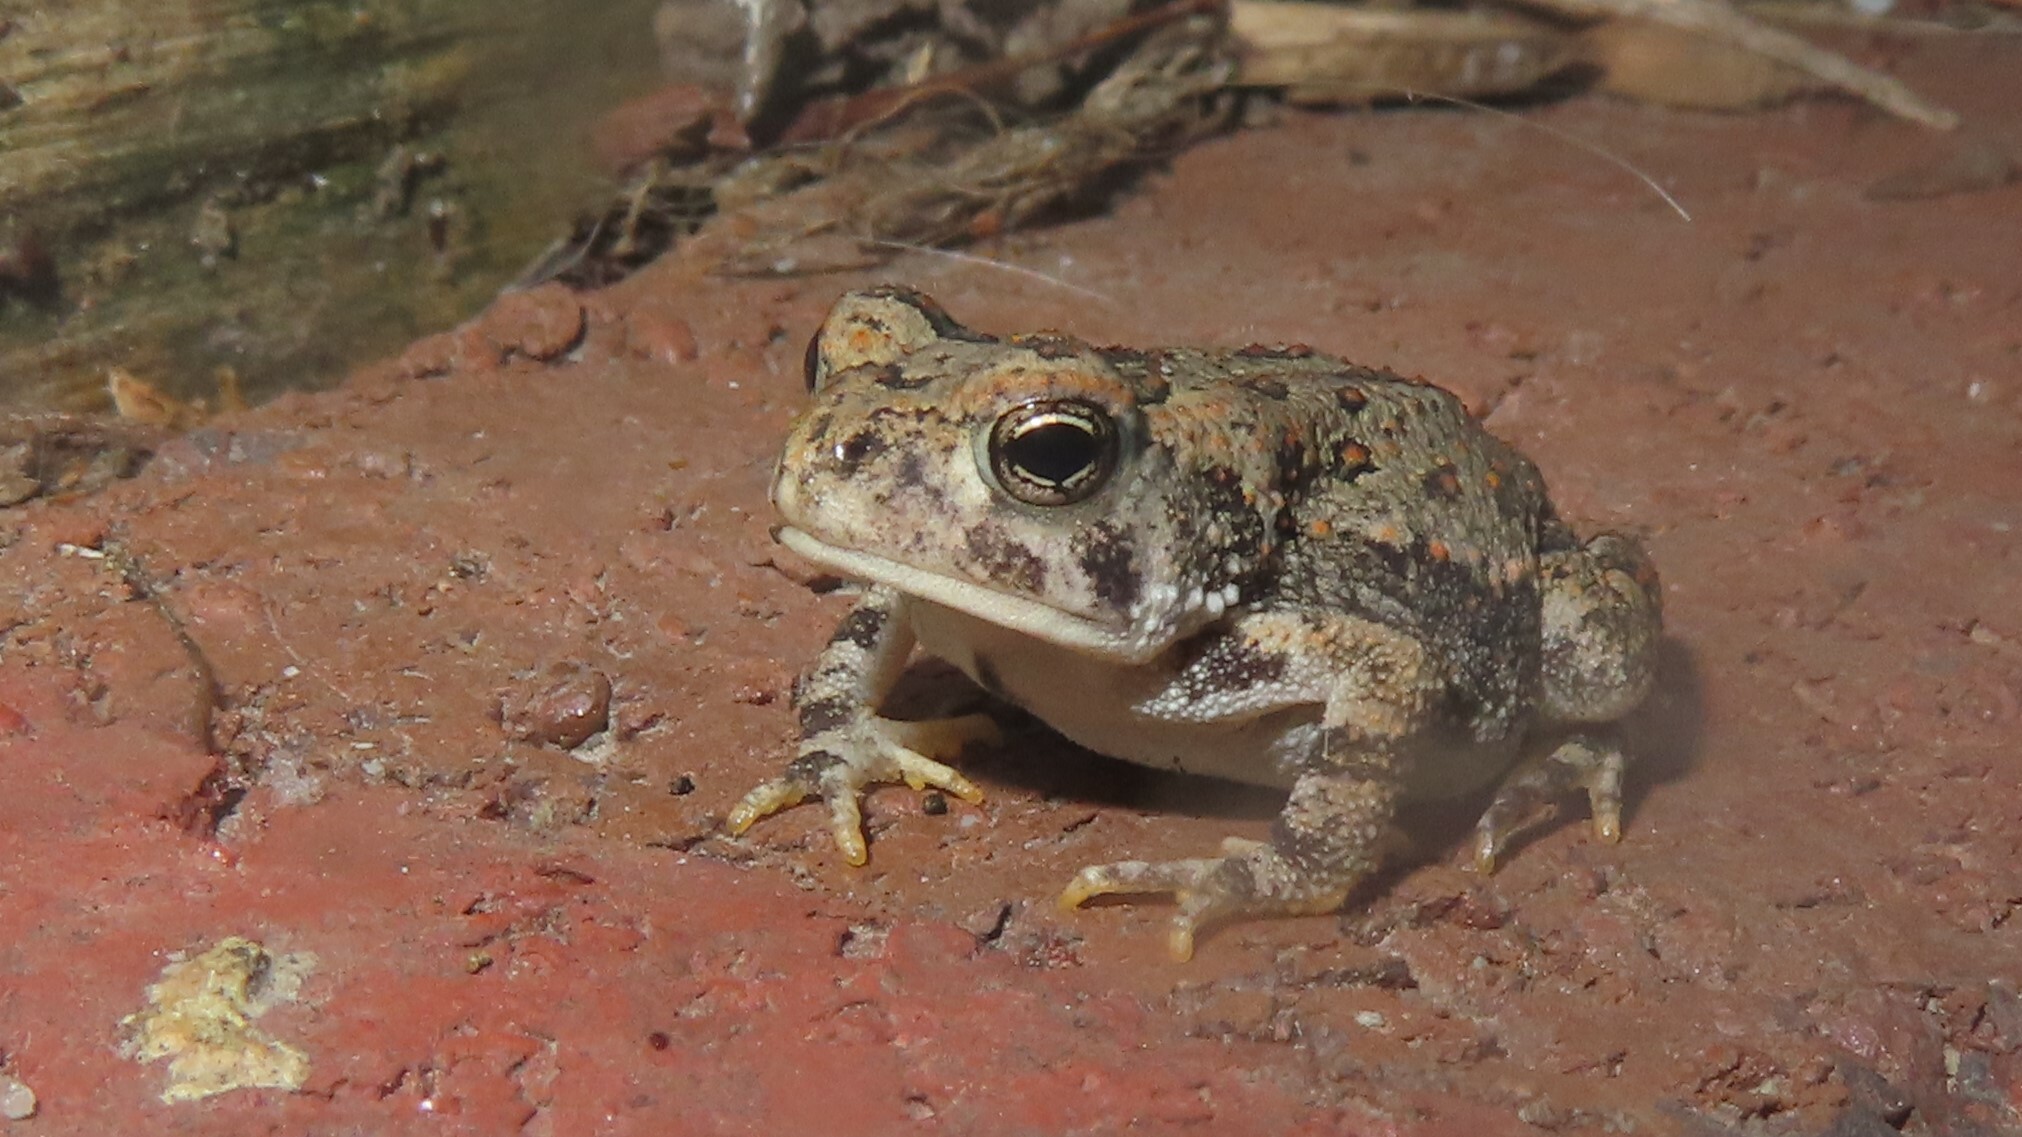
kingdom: Animalia
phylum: Chordata
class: Amphibia
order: Anura
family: Bufonidae
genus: Anaxyrus
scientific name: Anaxyrus fowleri
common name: Fowler's toad
